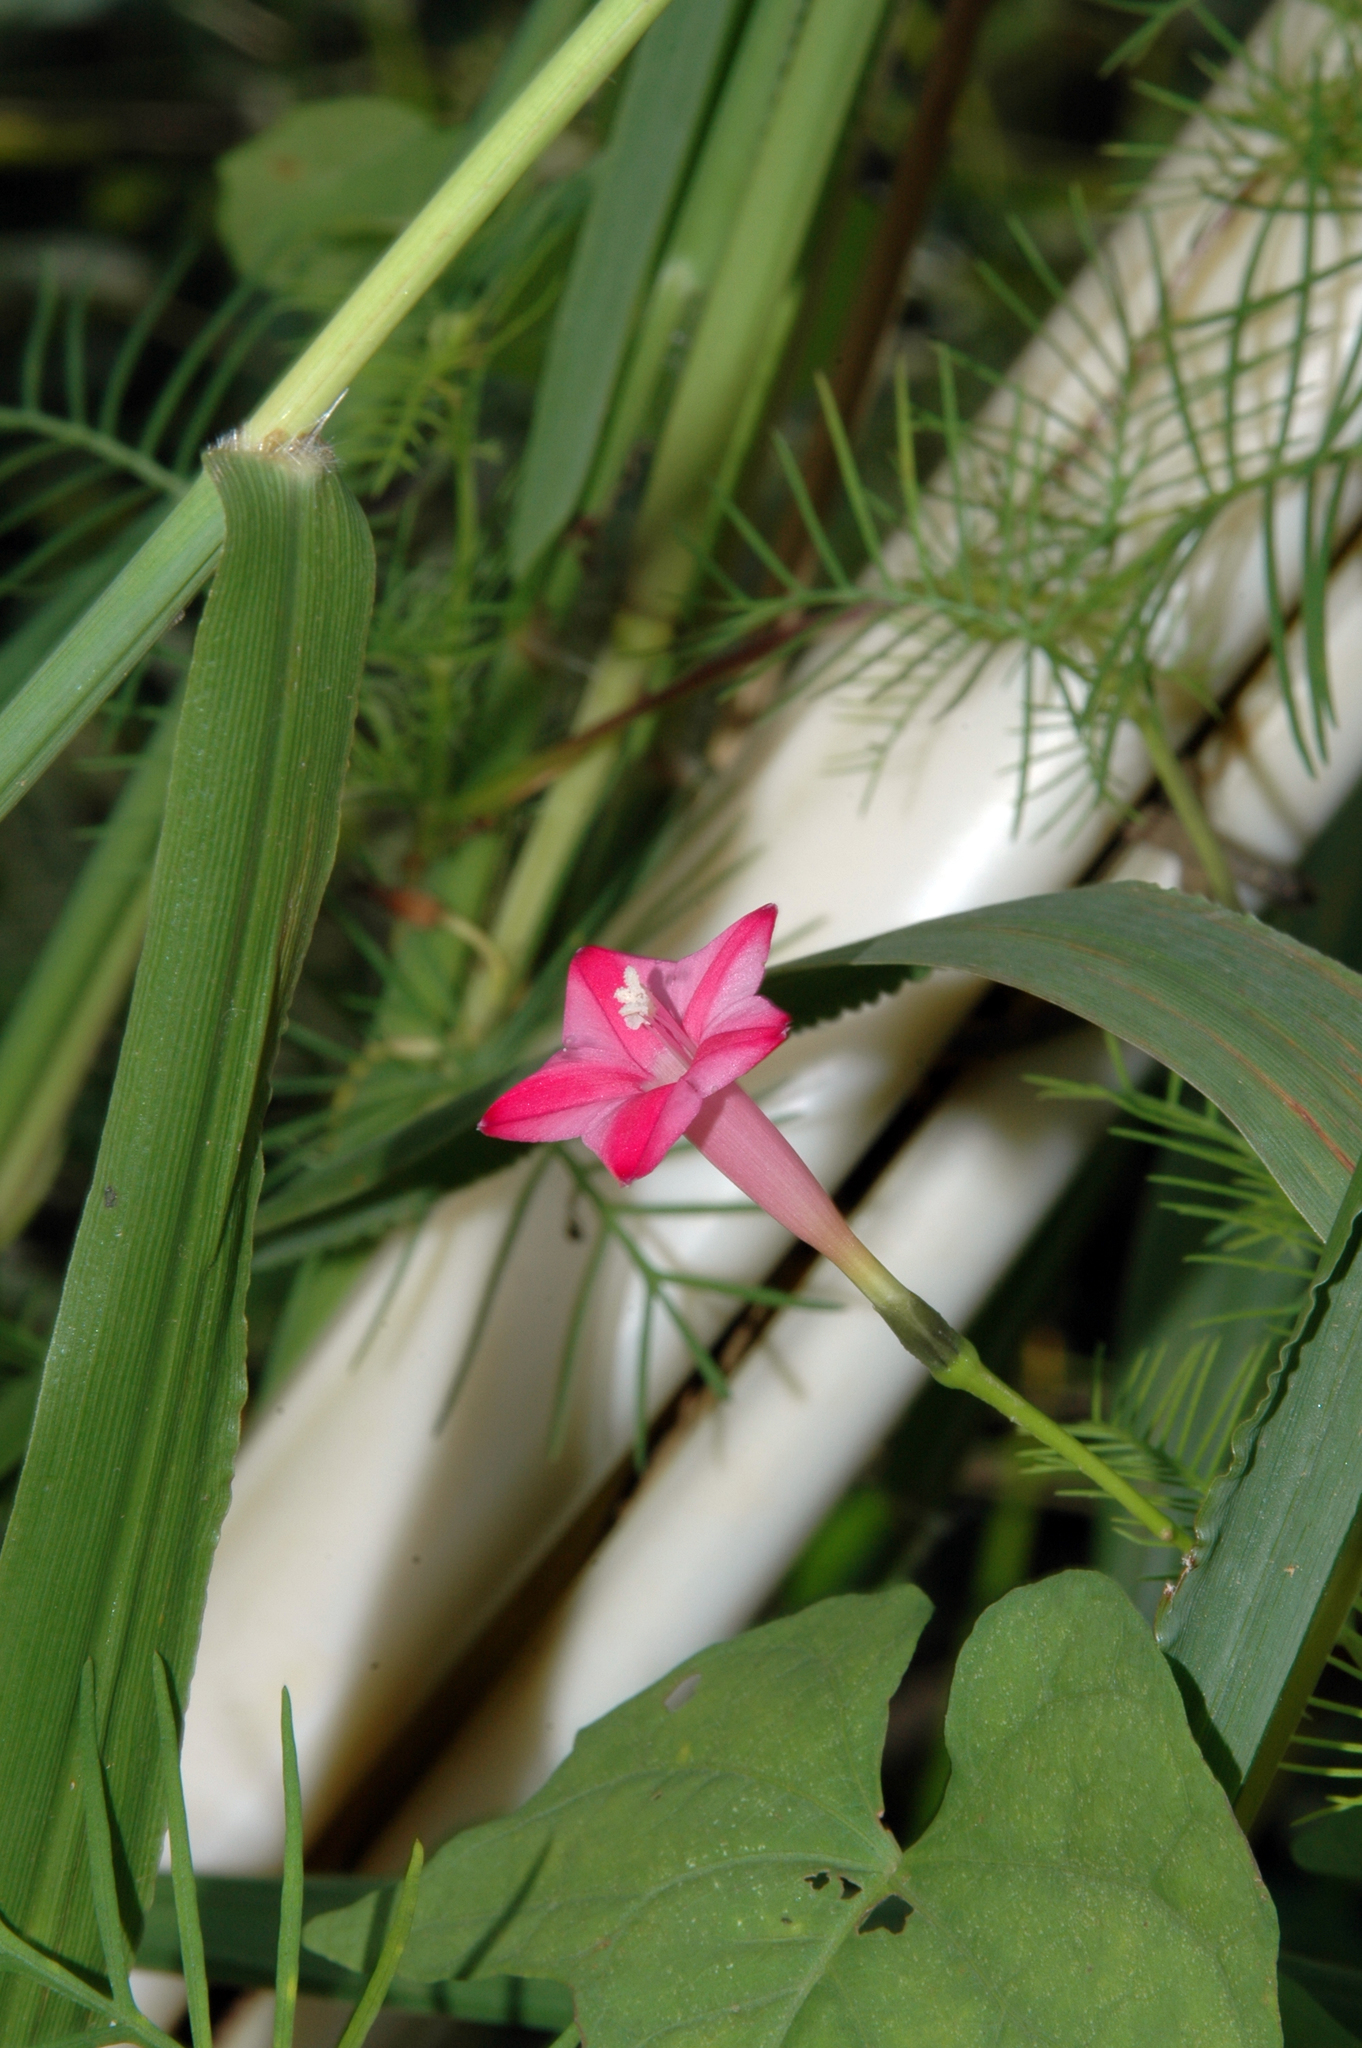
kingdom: Plantae
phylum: Tracheophyta
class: Magnoliopsida
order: Solanales
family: Convolvulaceae
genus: Ipomoea
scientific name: Ipomoea quamoclit
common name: Cypress vine
